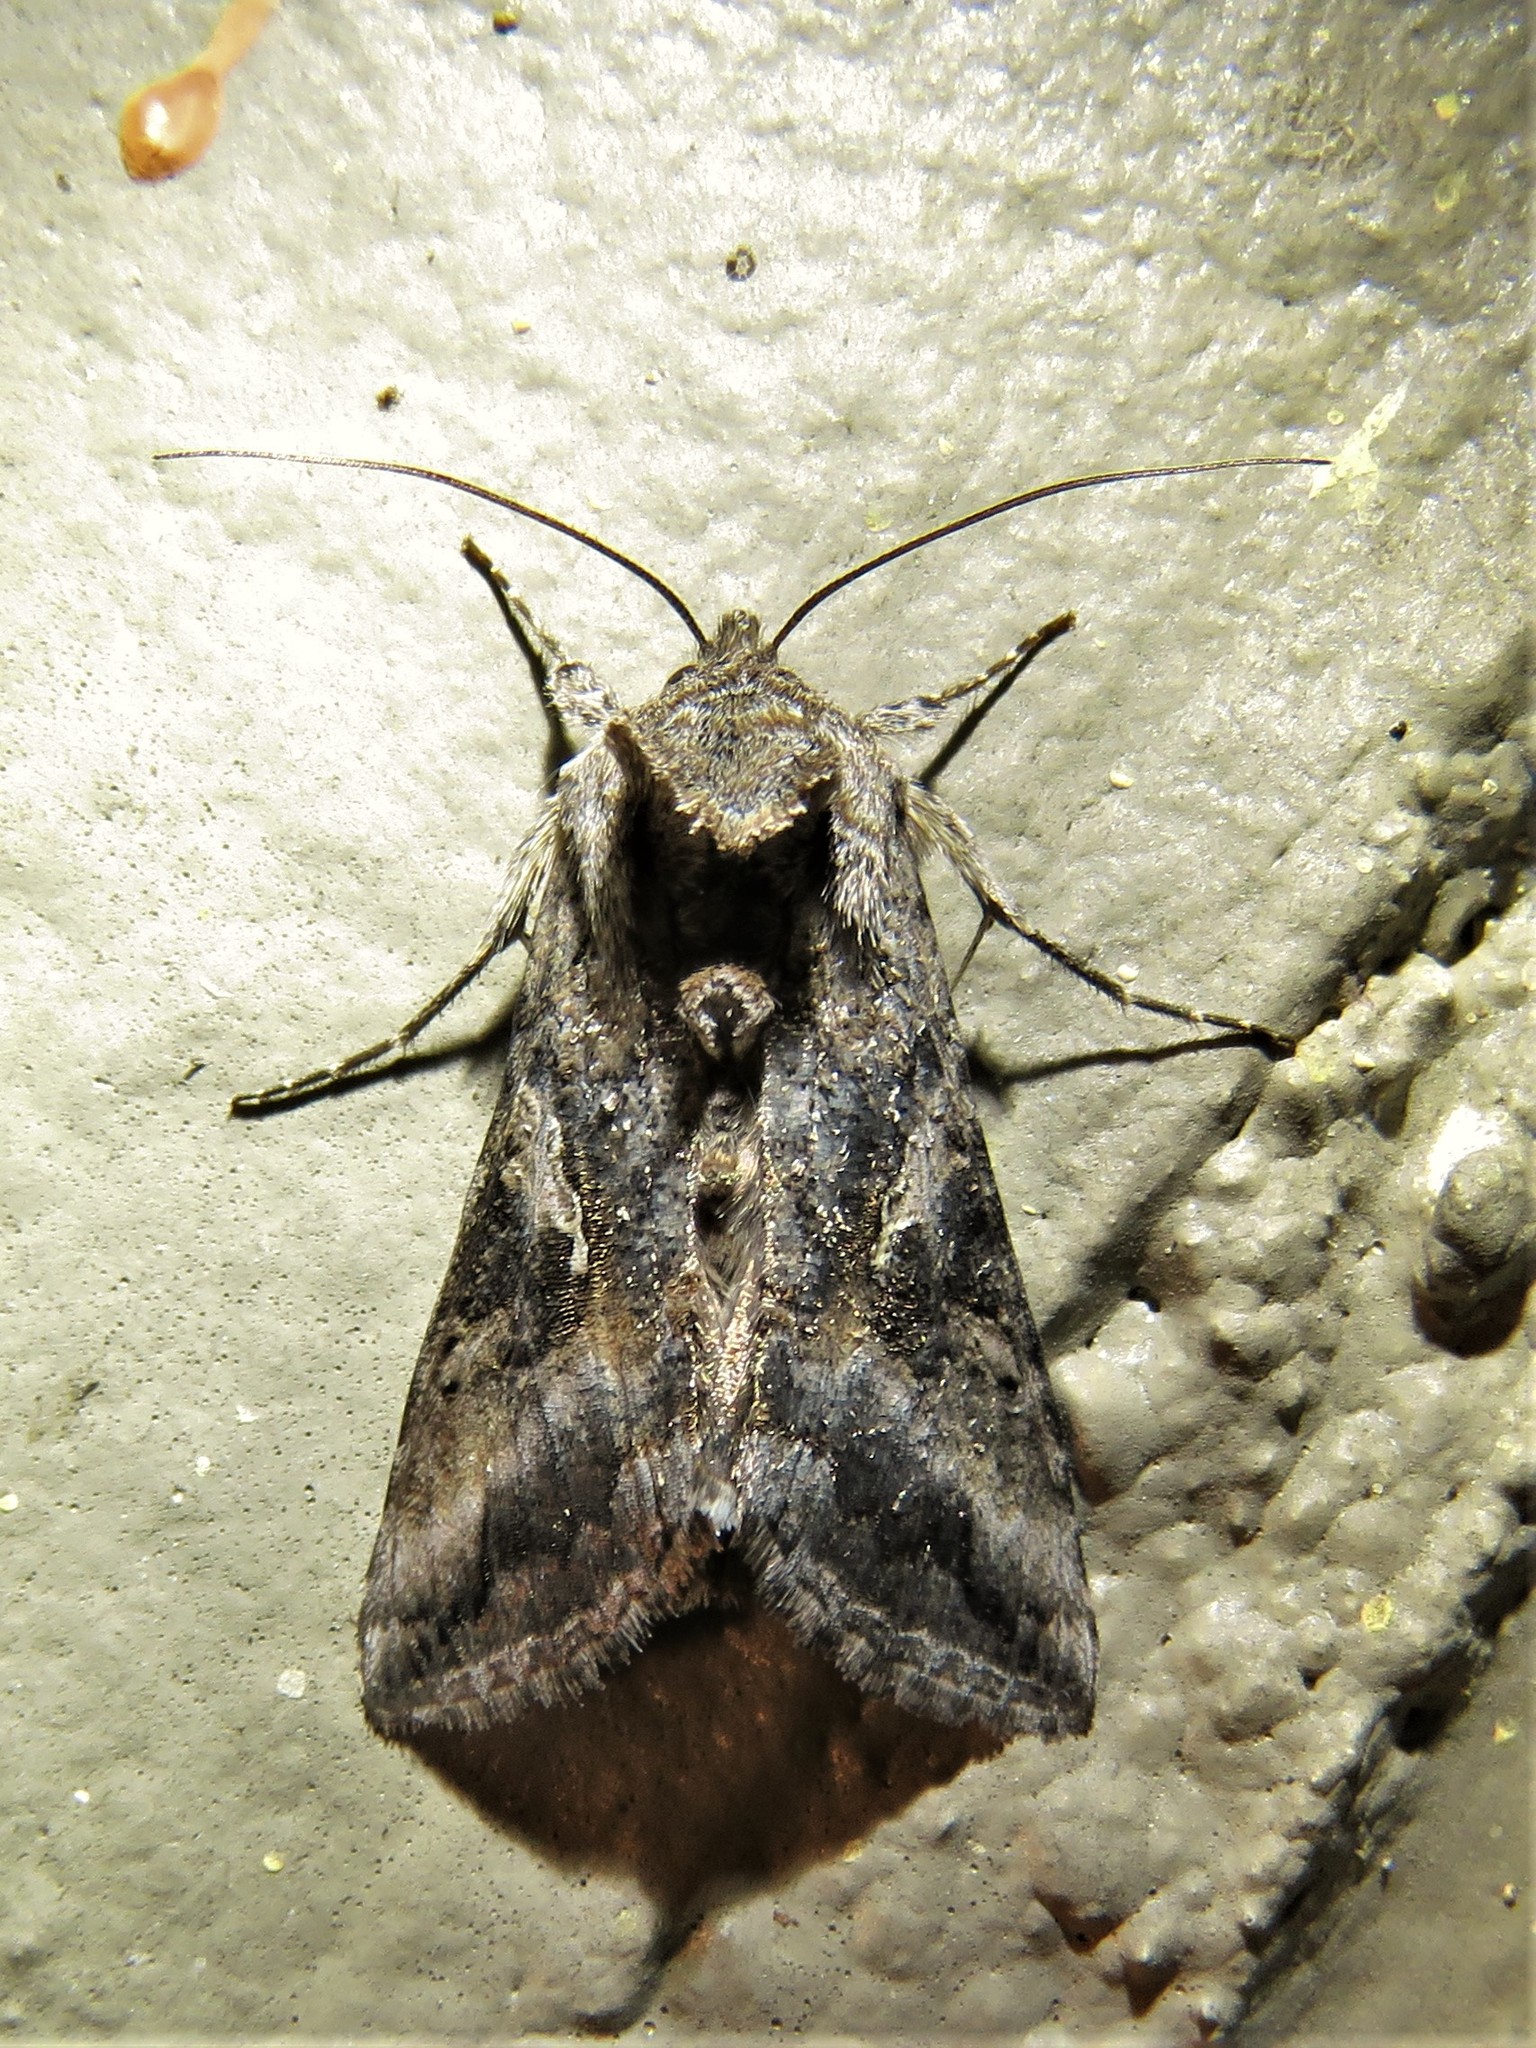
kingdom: Animalia
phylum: Arthropoda
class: Insecta
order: Lepidoptera
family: Noctuidae
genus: Rachiplusia
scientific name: Rachiplusia ou
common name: Gray looper moth
